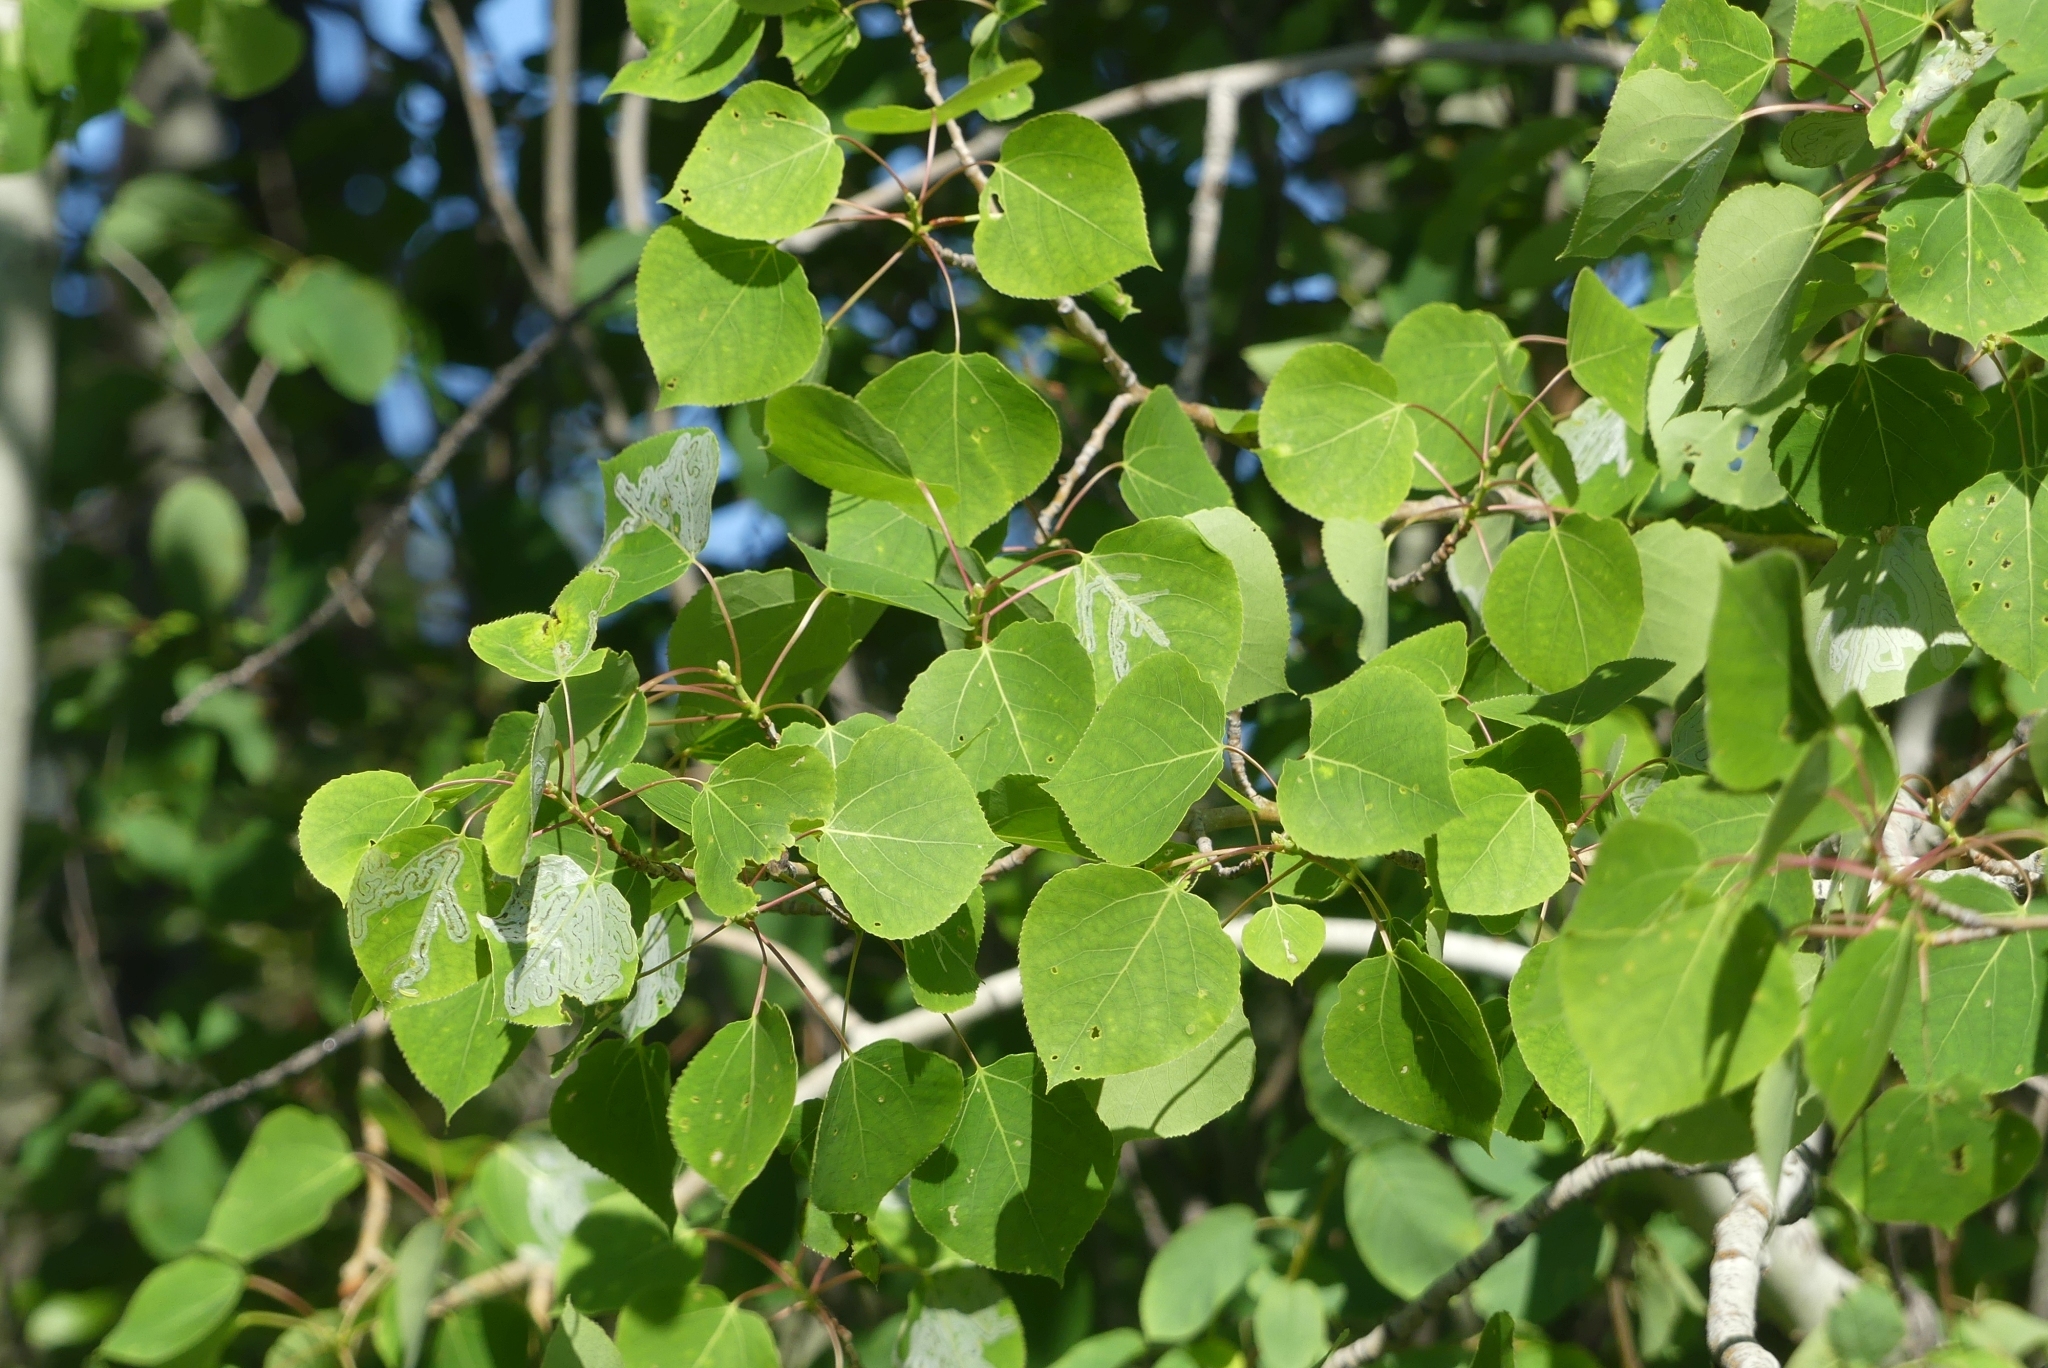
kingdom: Plantae
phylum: Tracheophyta
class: Magnoliopsida
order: Malpighiales
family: Salicaceae
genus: Populus
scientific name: Populus tremuloides
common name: Quaking aspen
